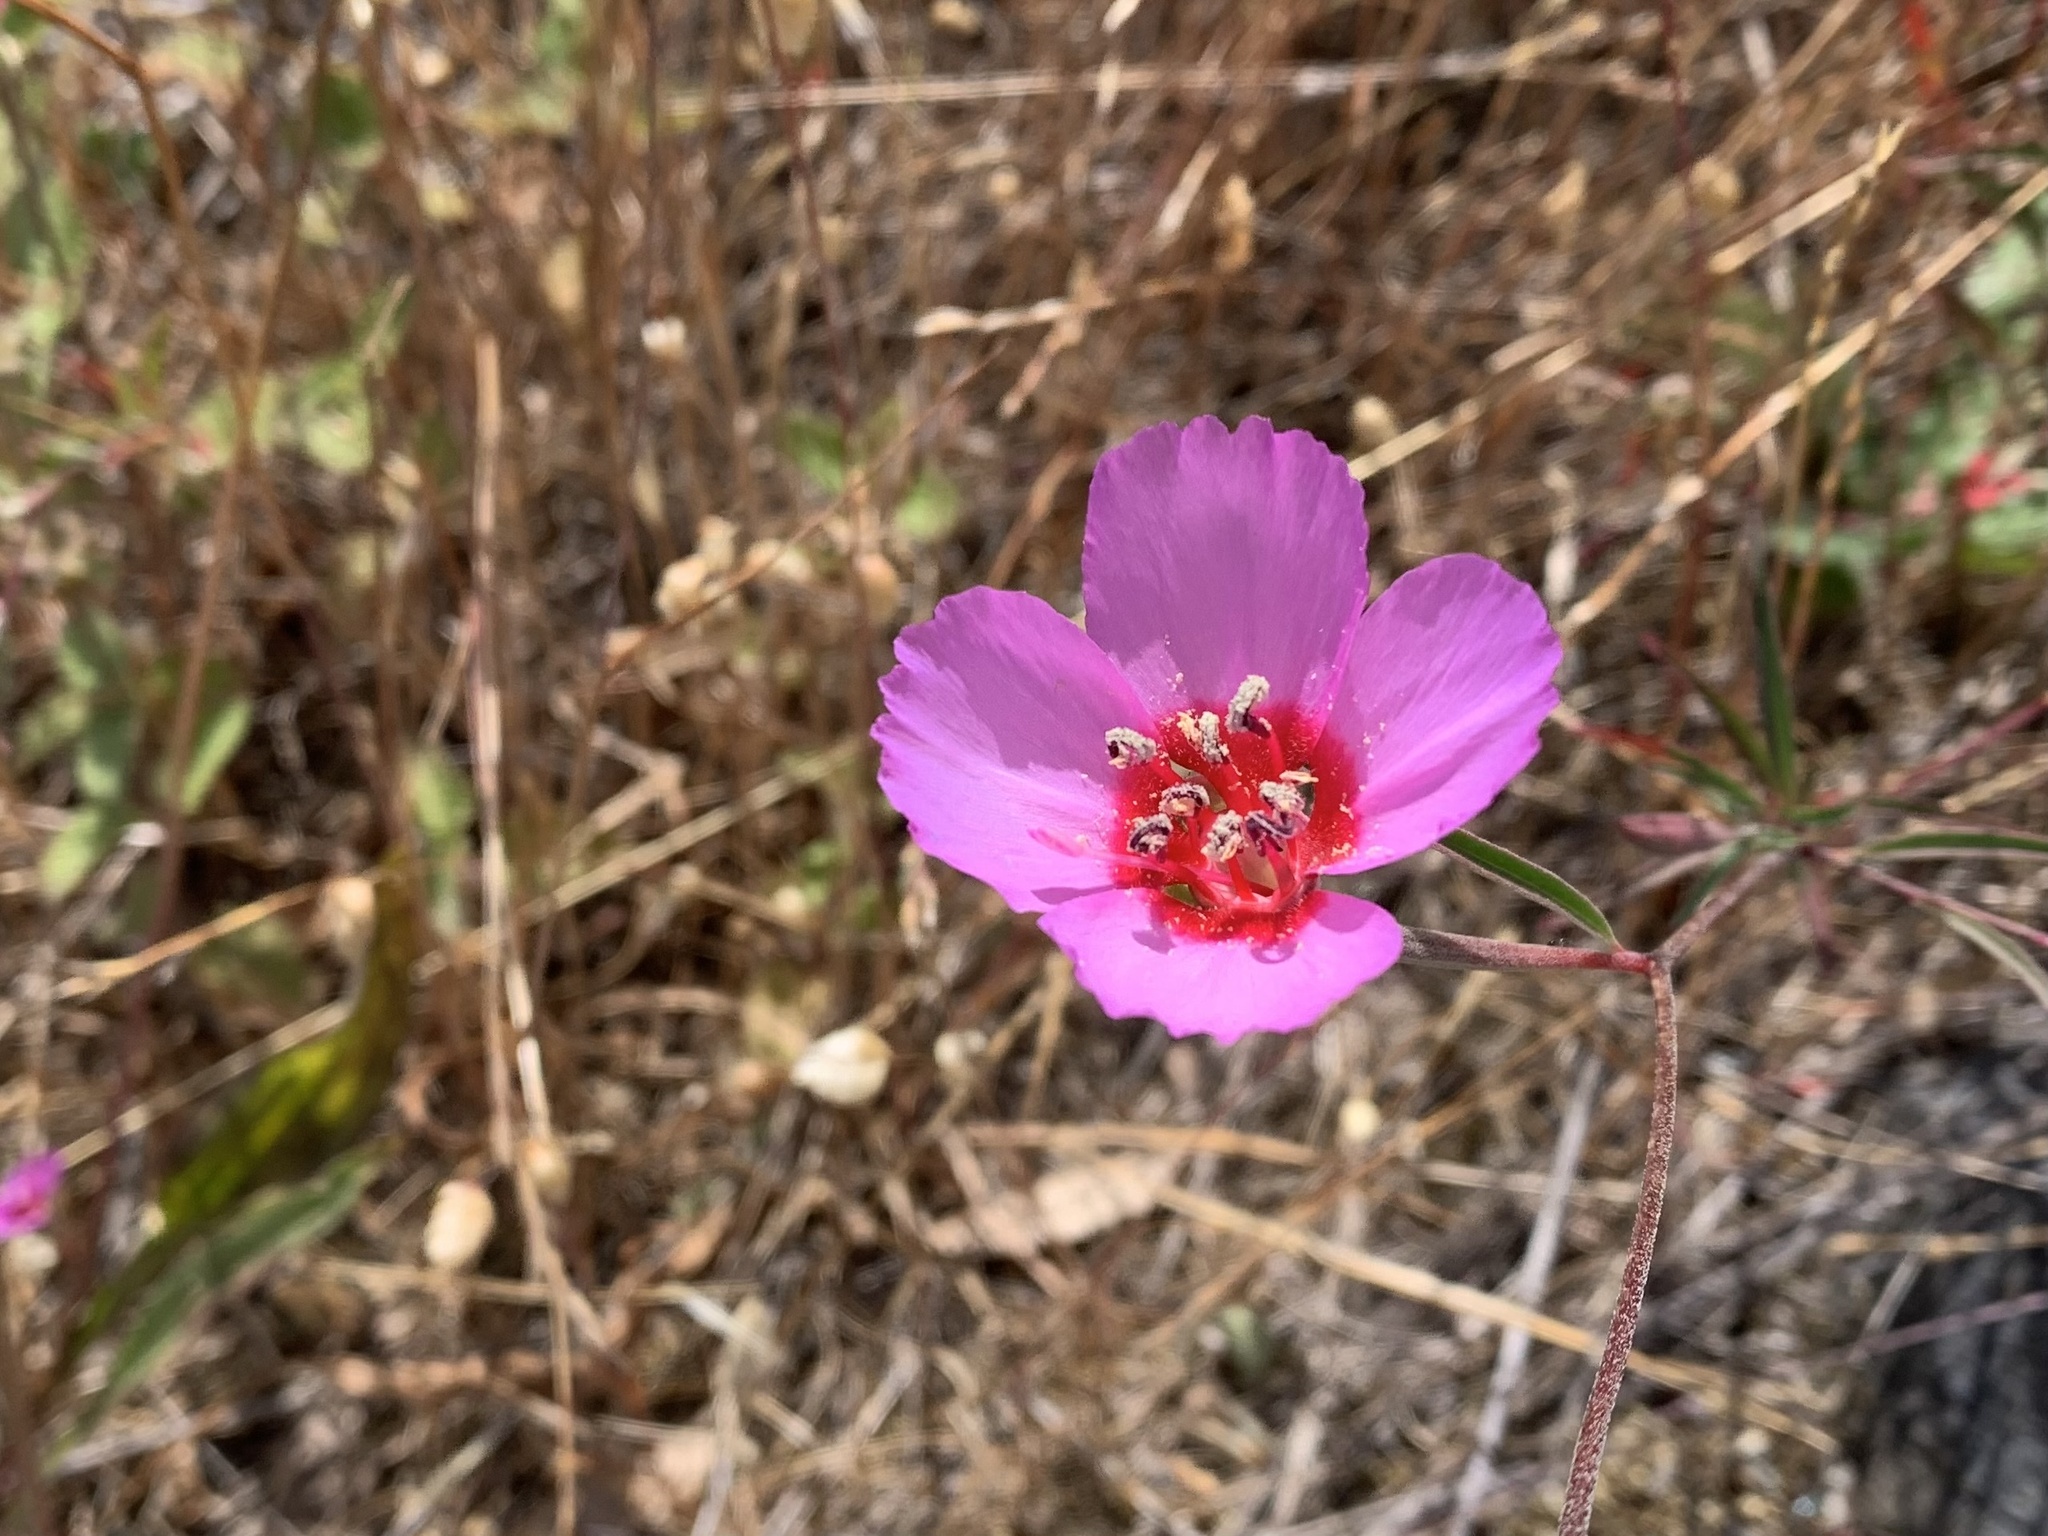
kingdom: Plantae
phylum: Tracheophyta
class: Magnoliopsida
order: Myrtales
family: Onagraceae
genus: Clarkia
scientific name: Clarkia rubicunda
